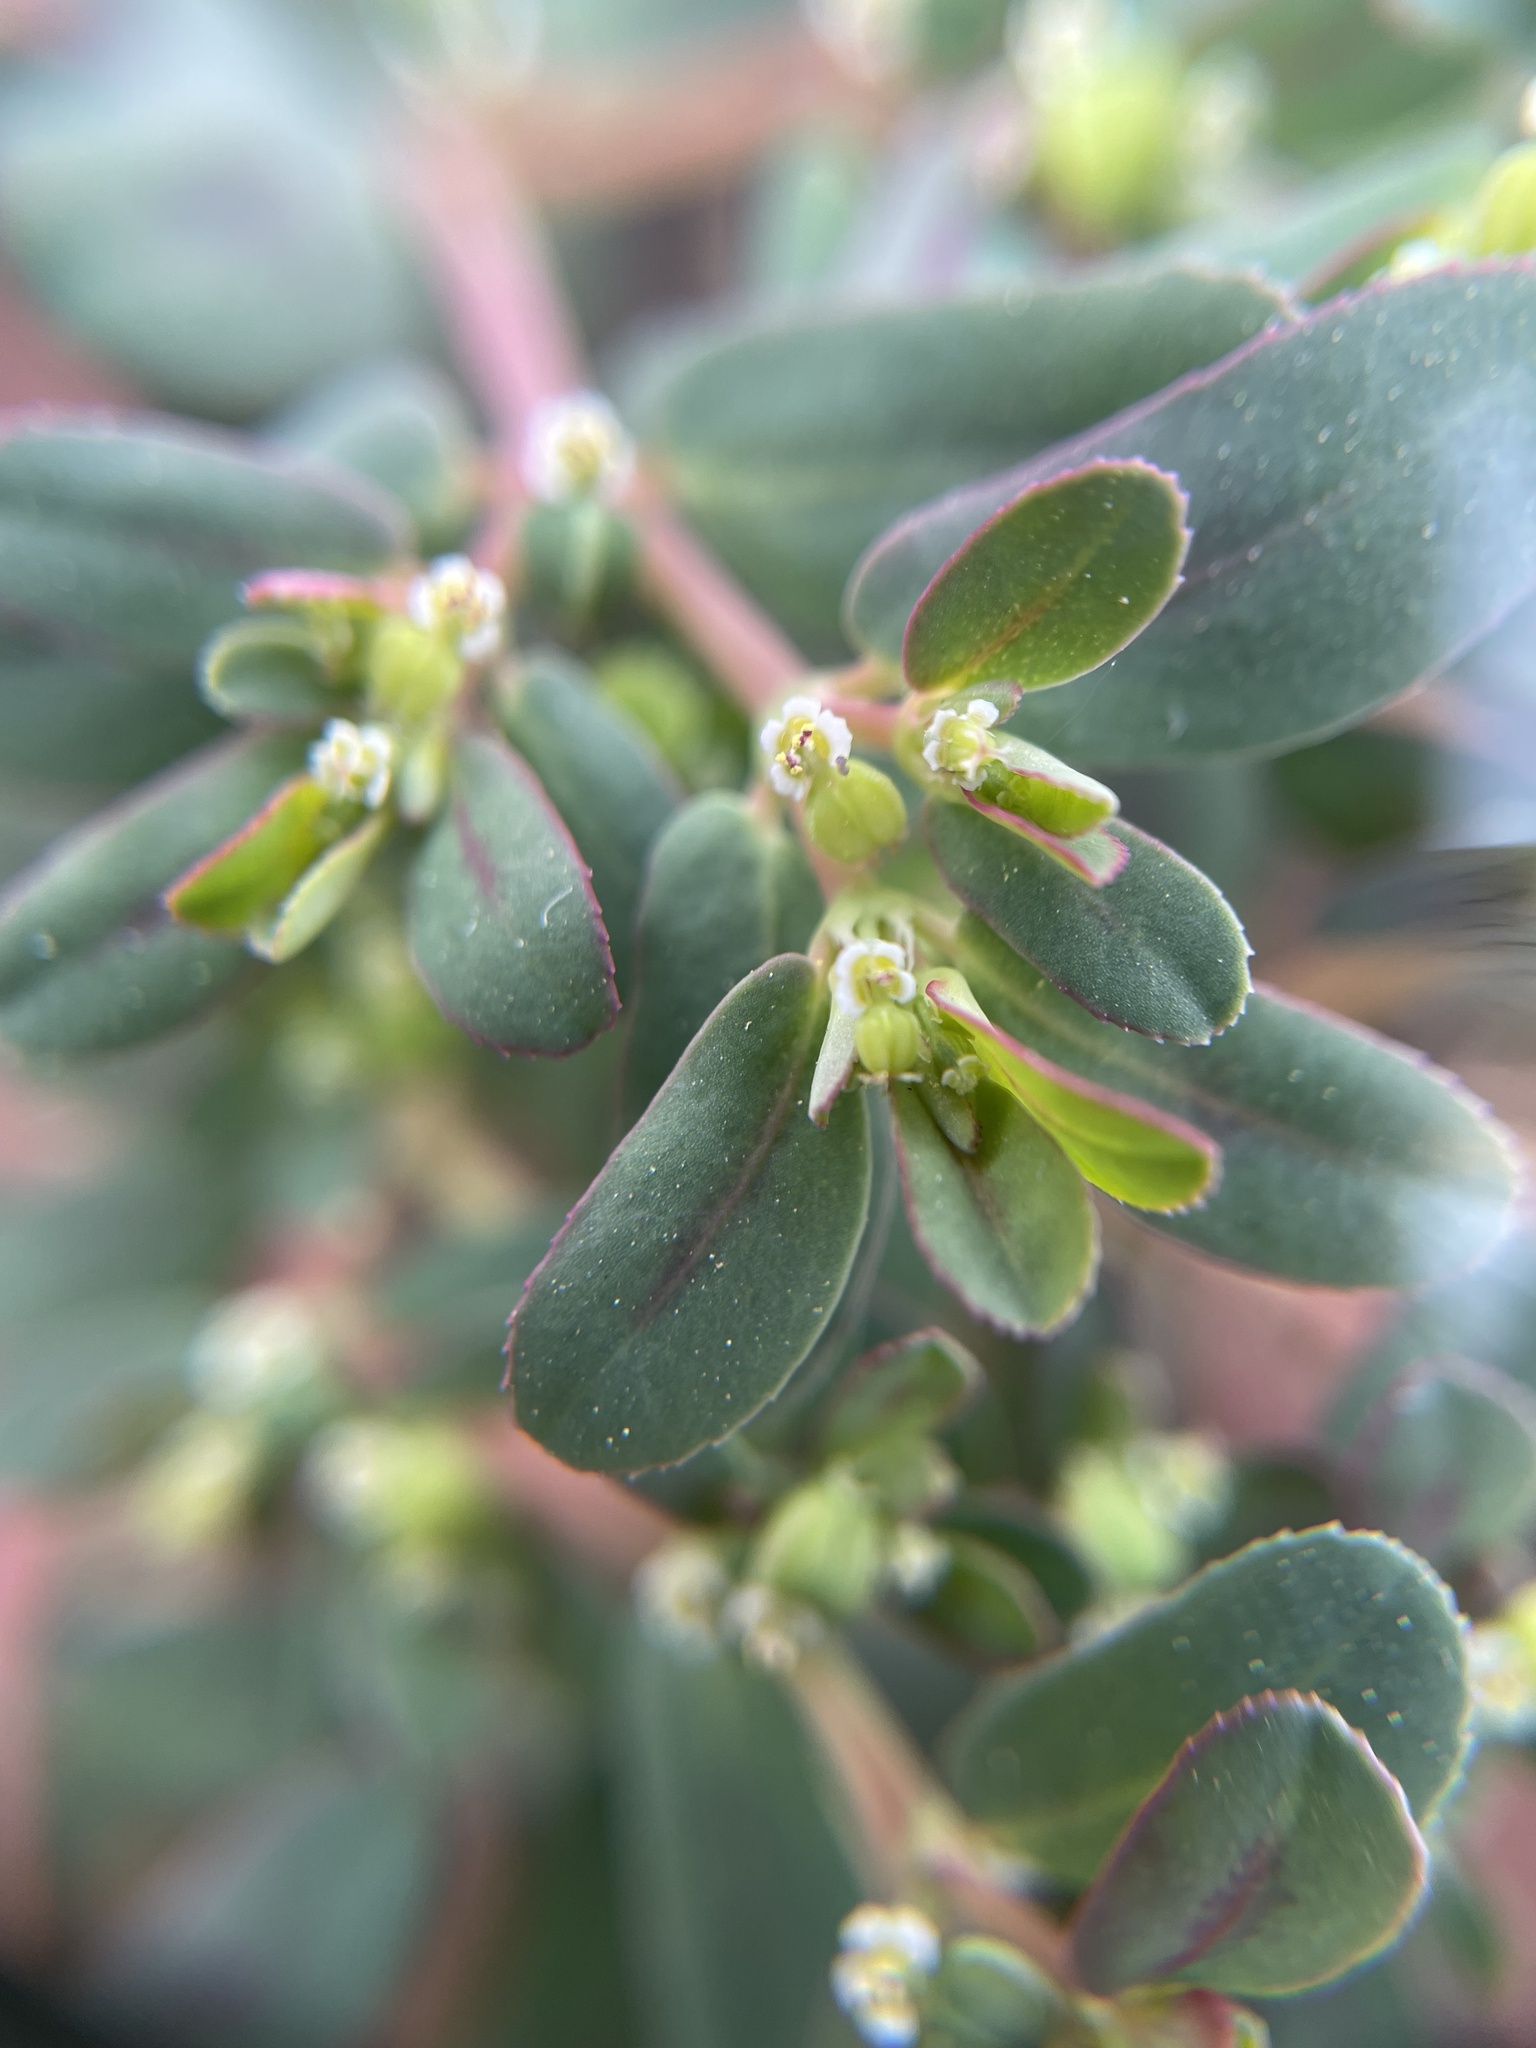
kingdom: Plantae
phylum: Tracheophyta
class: Magnoliopsida
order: Malpighiales
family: Euphorbiaceae
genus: Euphorbia
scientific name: Euphorbia serpillifolia
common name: Thyme-leaf spurge
